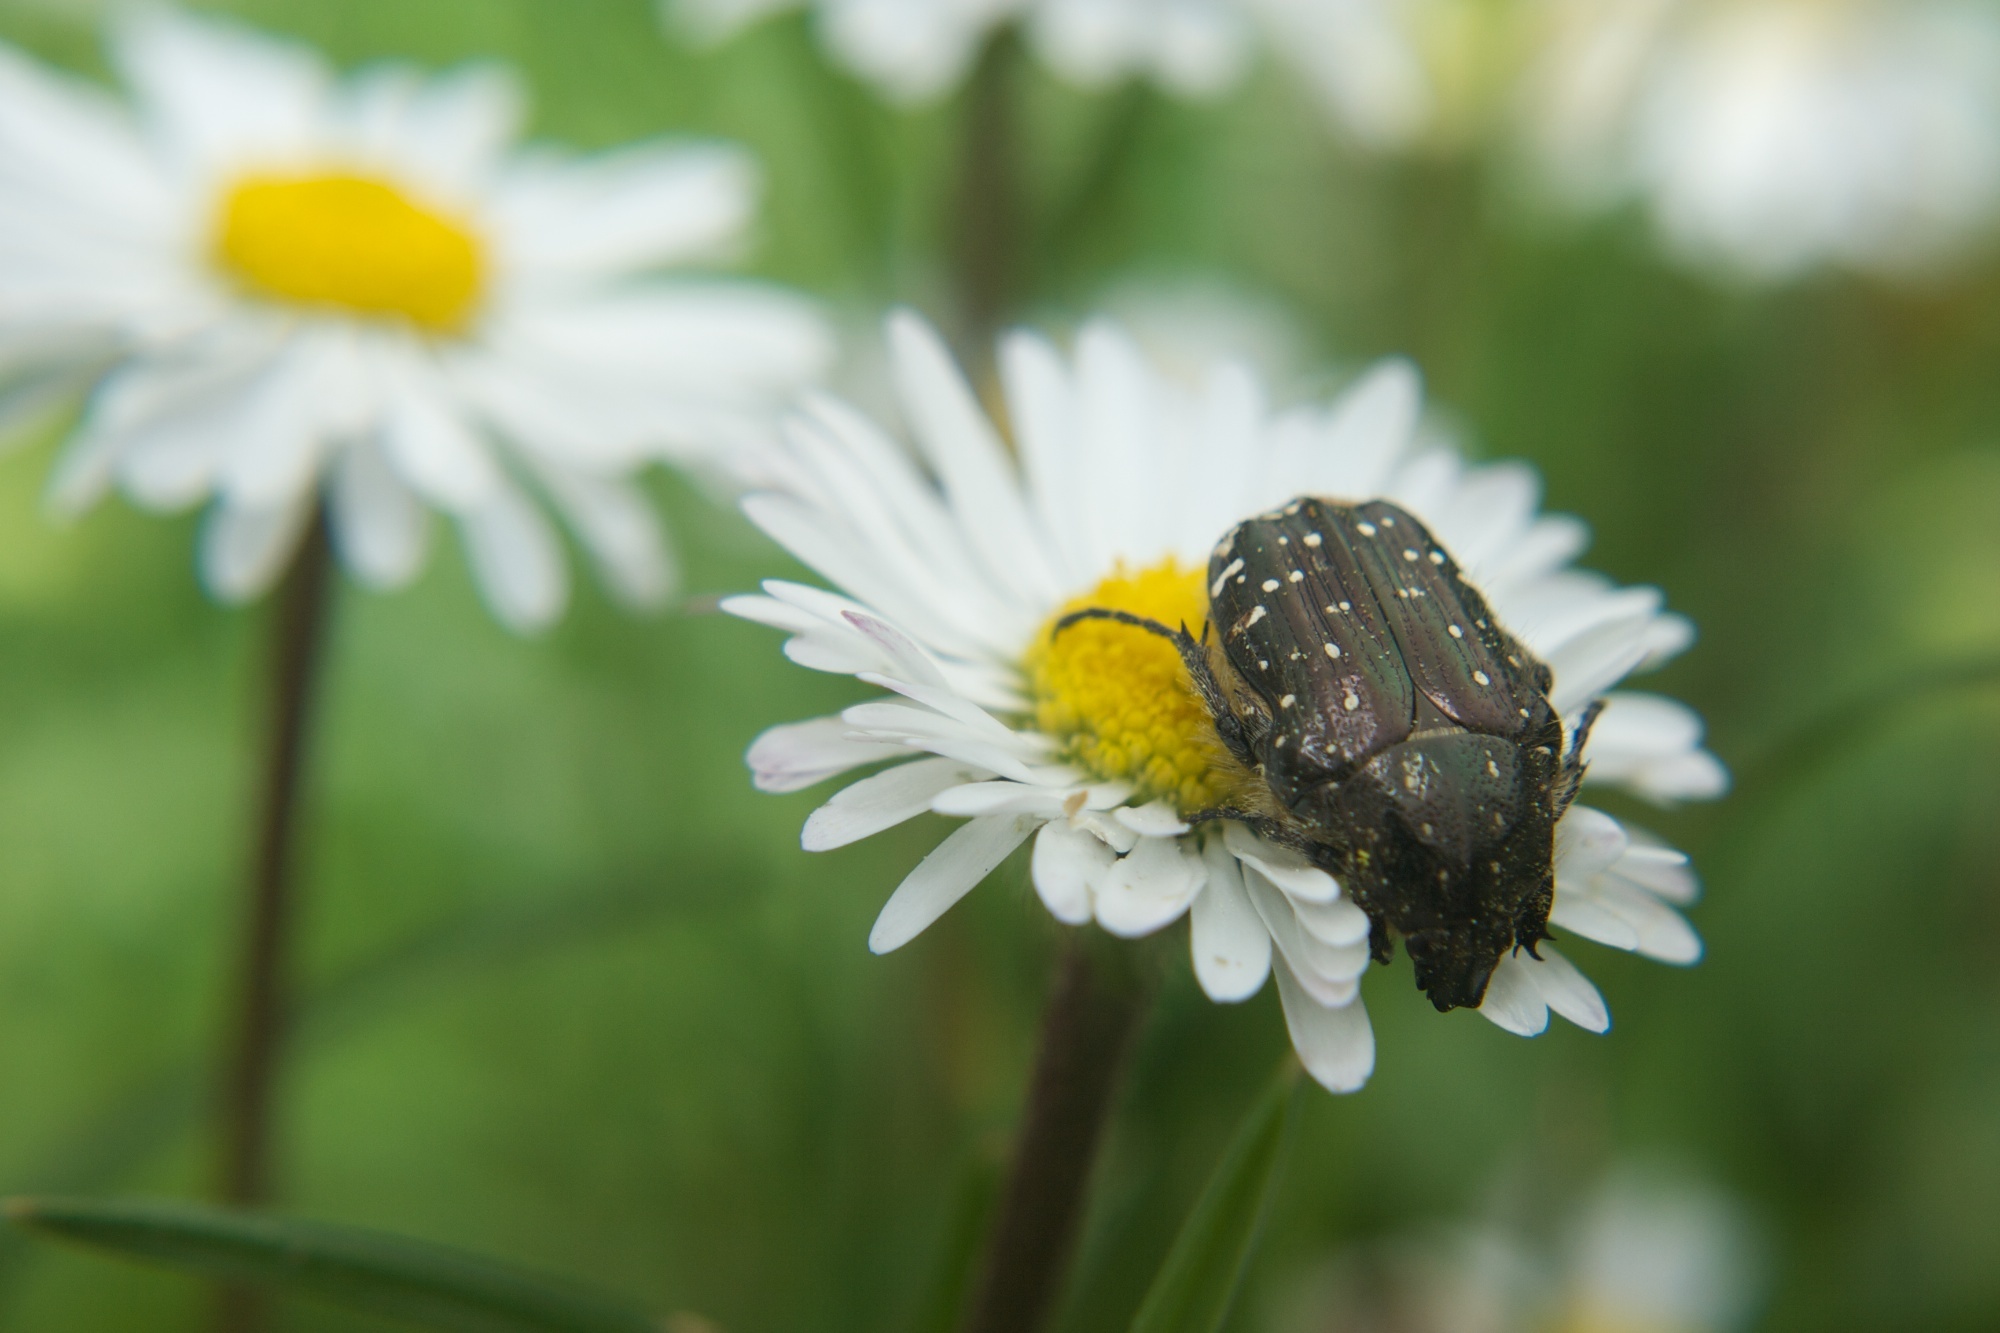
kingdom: Animalia
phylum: Arthropoda
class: Insecta
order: Coleoptera
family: Scarabaeidae
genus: Oxythyrea
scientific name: Oxythyrea funesta
